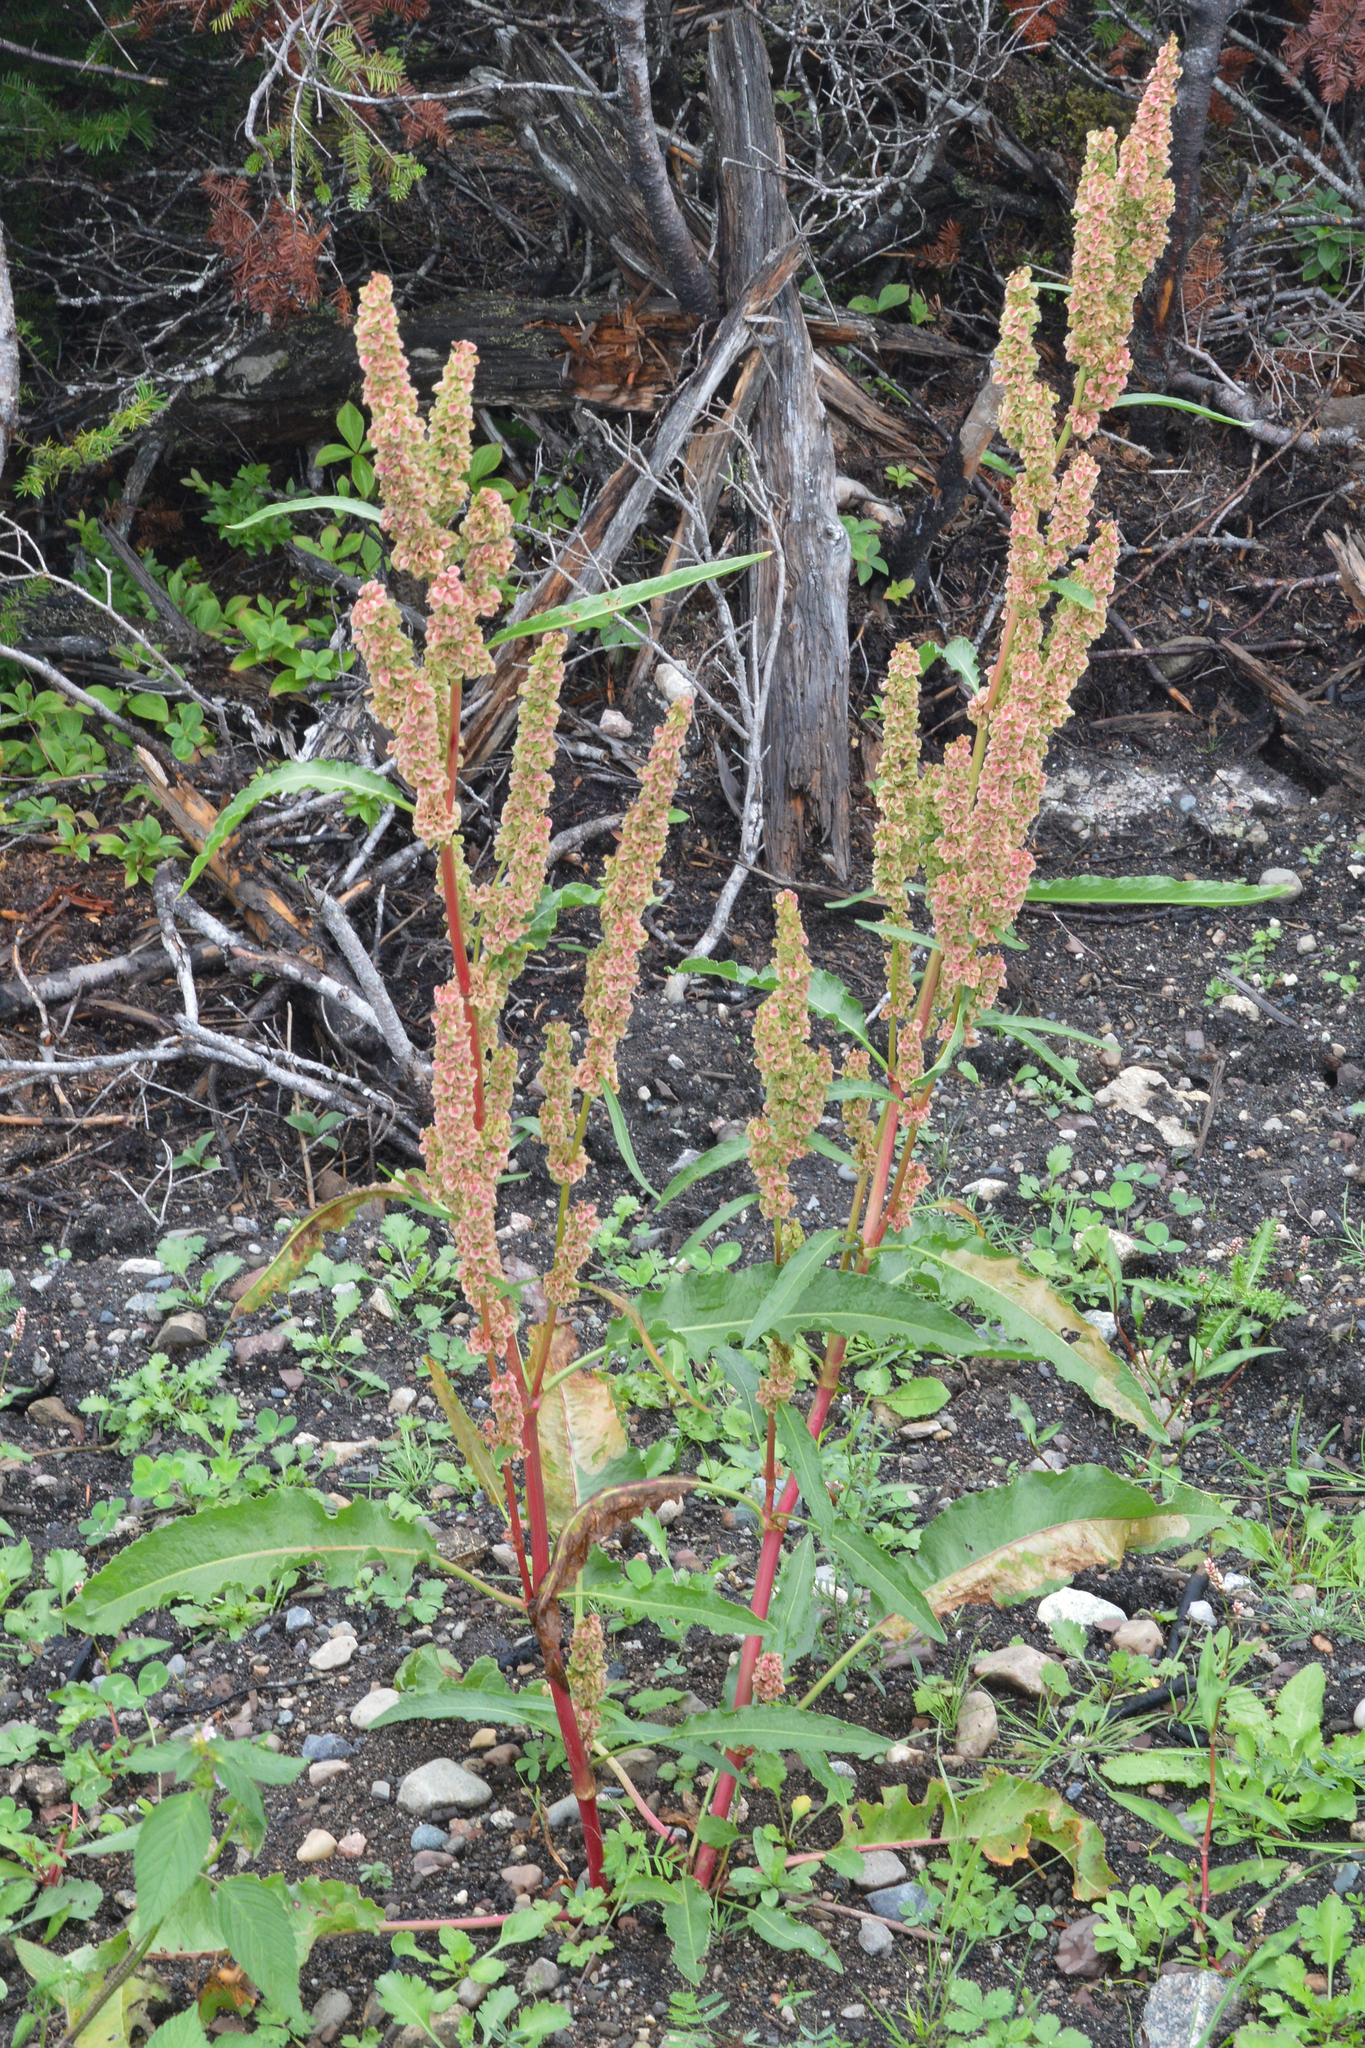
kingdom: Plantae
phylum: Tracheophyta
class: Magnoliopsida
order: Caryophyllales
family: Polygonaceae
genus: Rumex
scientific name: Rumex longifolius
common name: Dooryard dock
